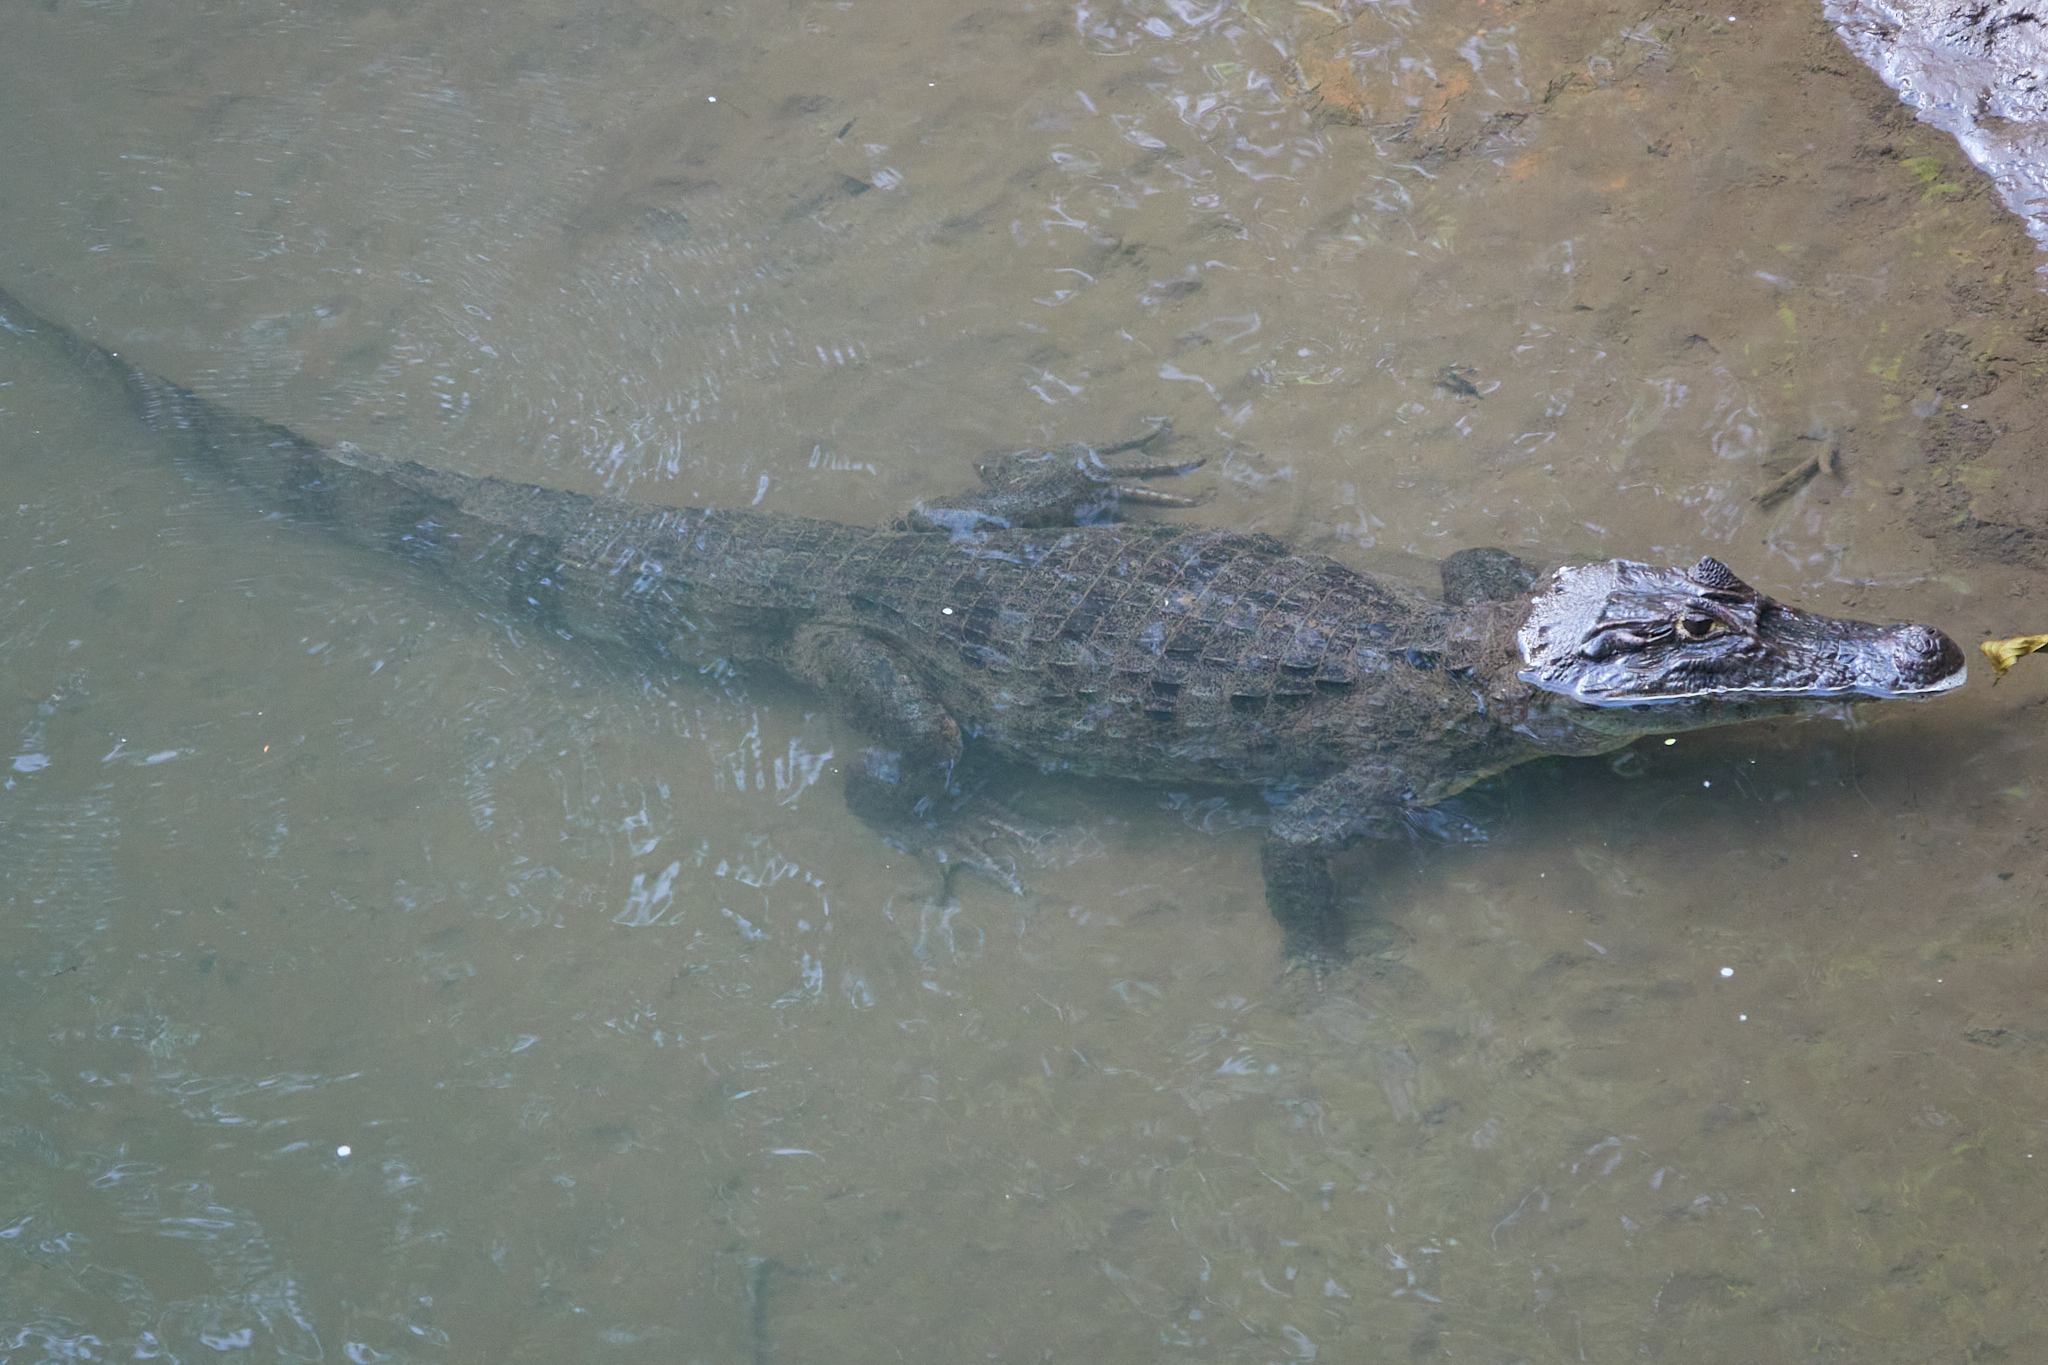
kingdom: Animalia
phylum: Chordata
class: Crocodylia
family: Alligatoridae
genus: Caiman
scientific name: Caiman crocodilus
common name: Common caiman
